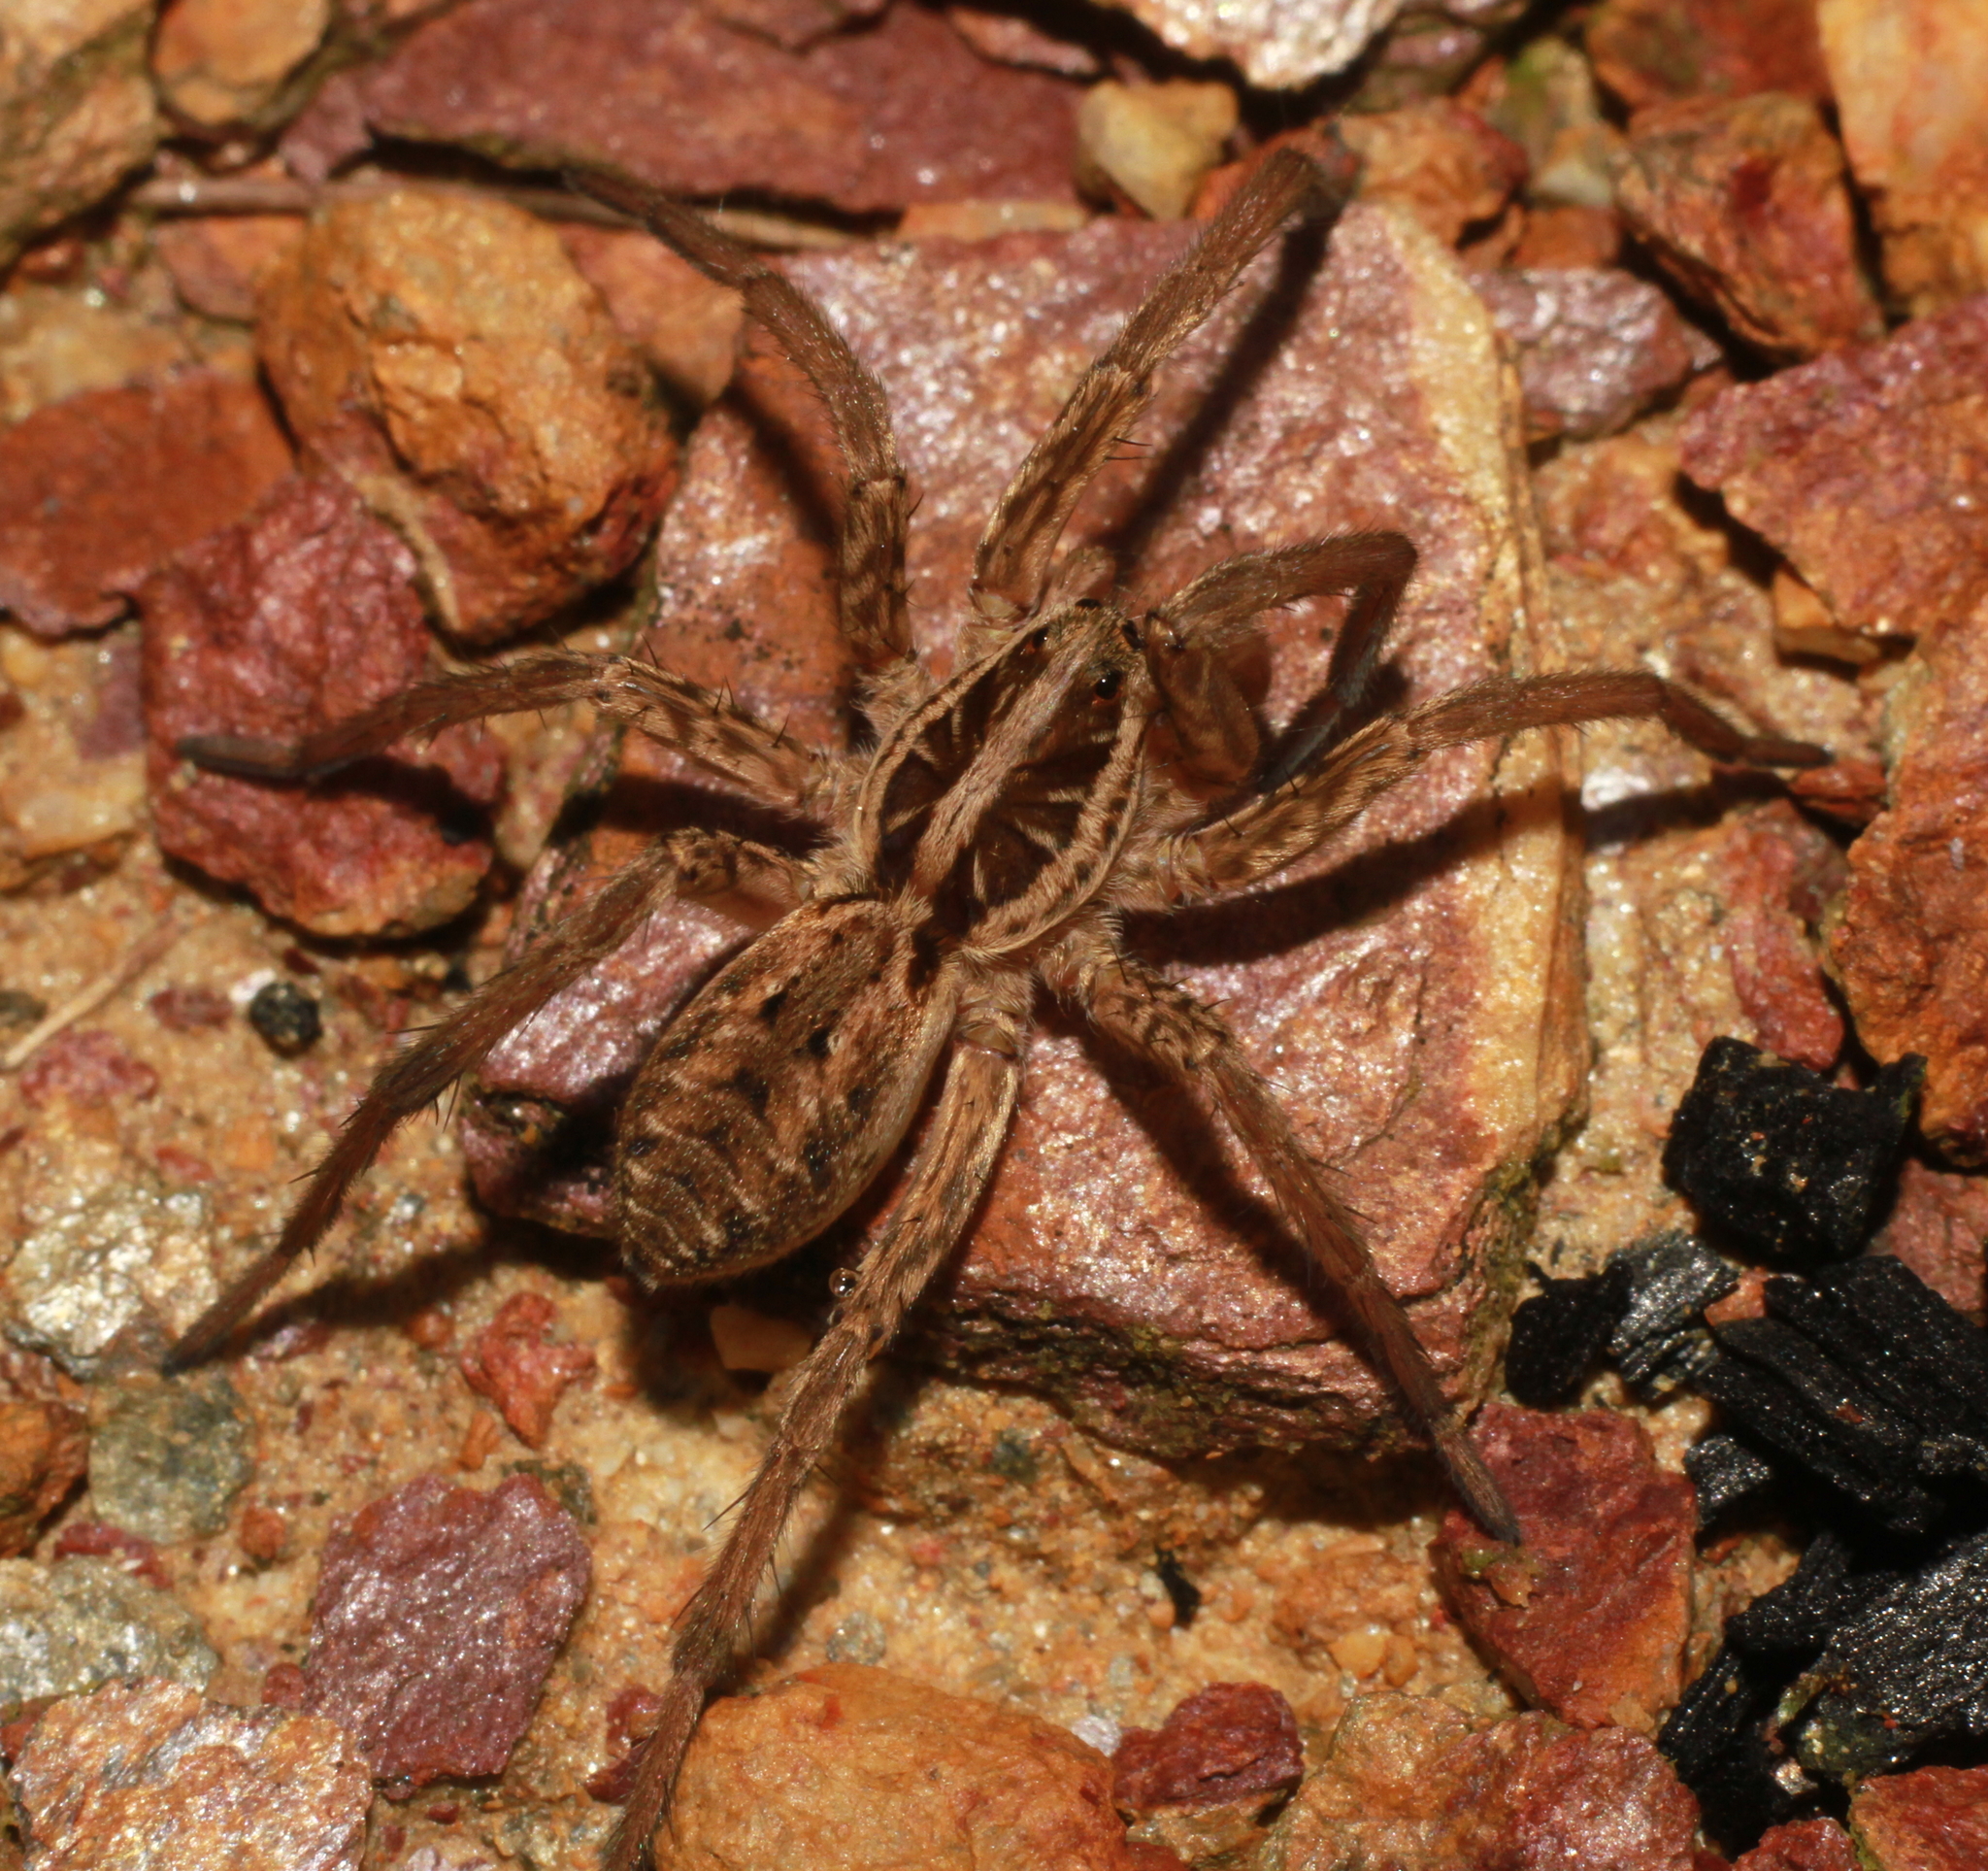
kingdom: Animalia
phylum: Arthropoda
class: Arachnida
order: Araneae
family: Lycosidae
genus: Hogna
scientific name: Hogna radiata
